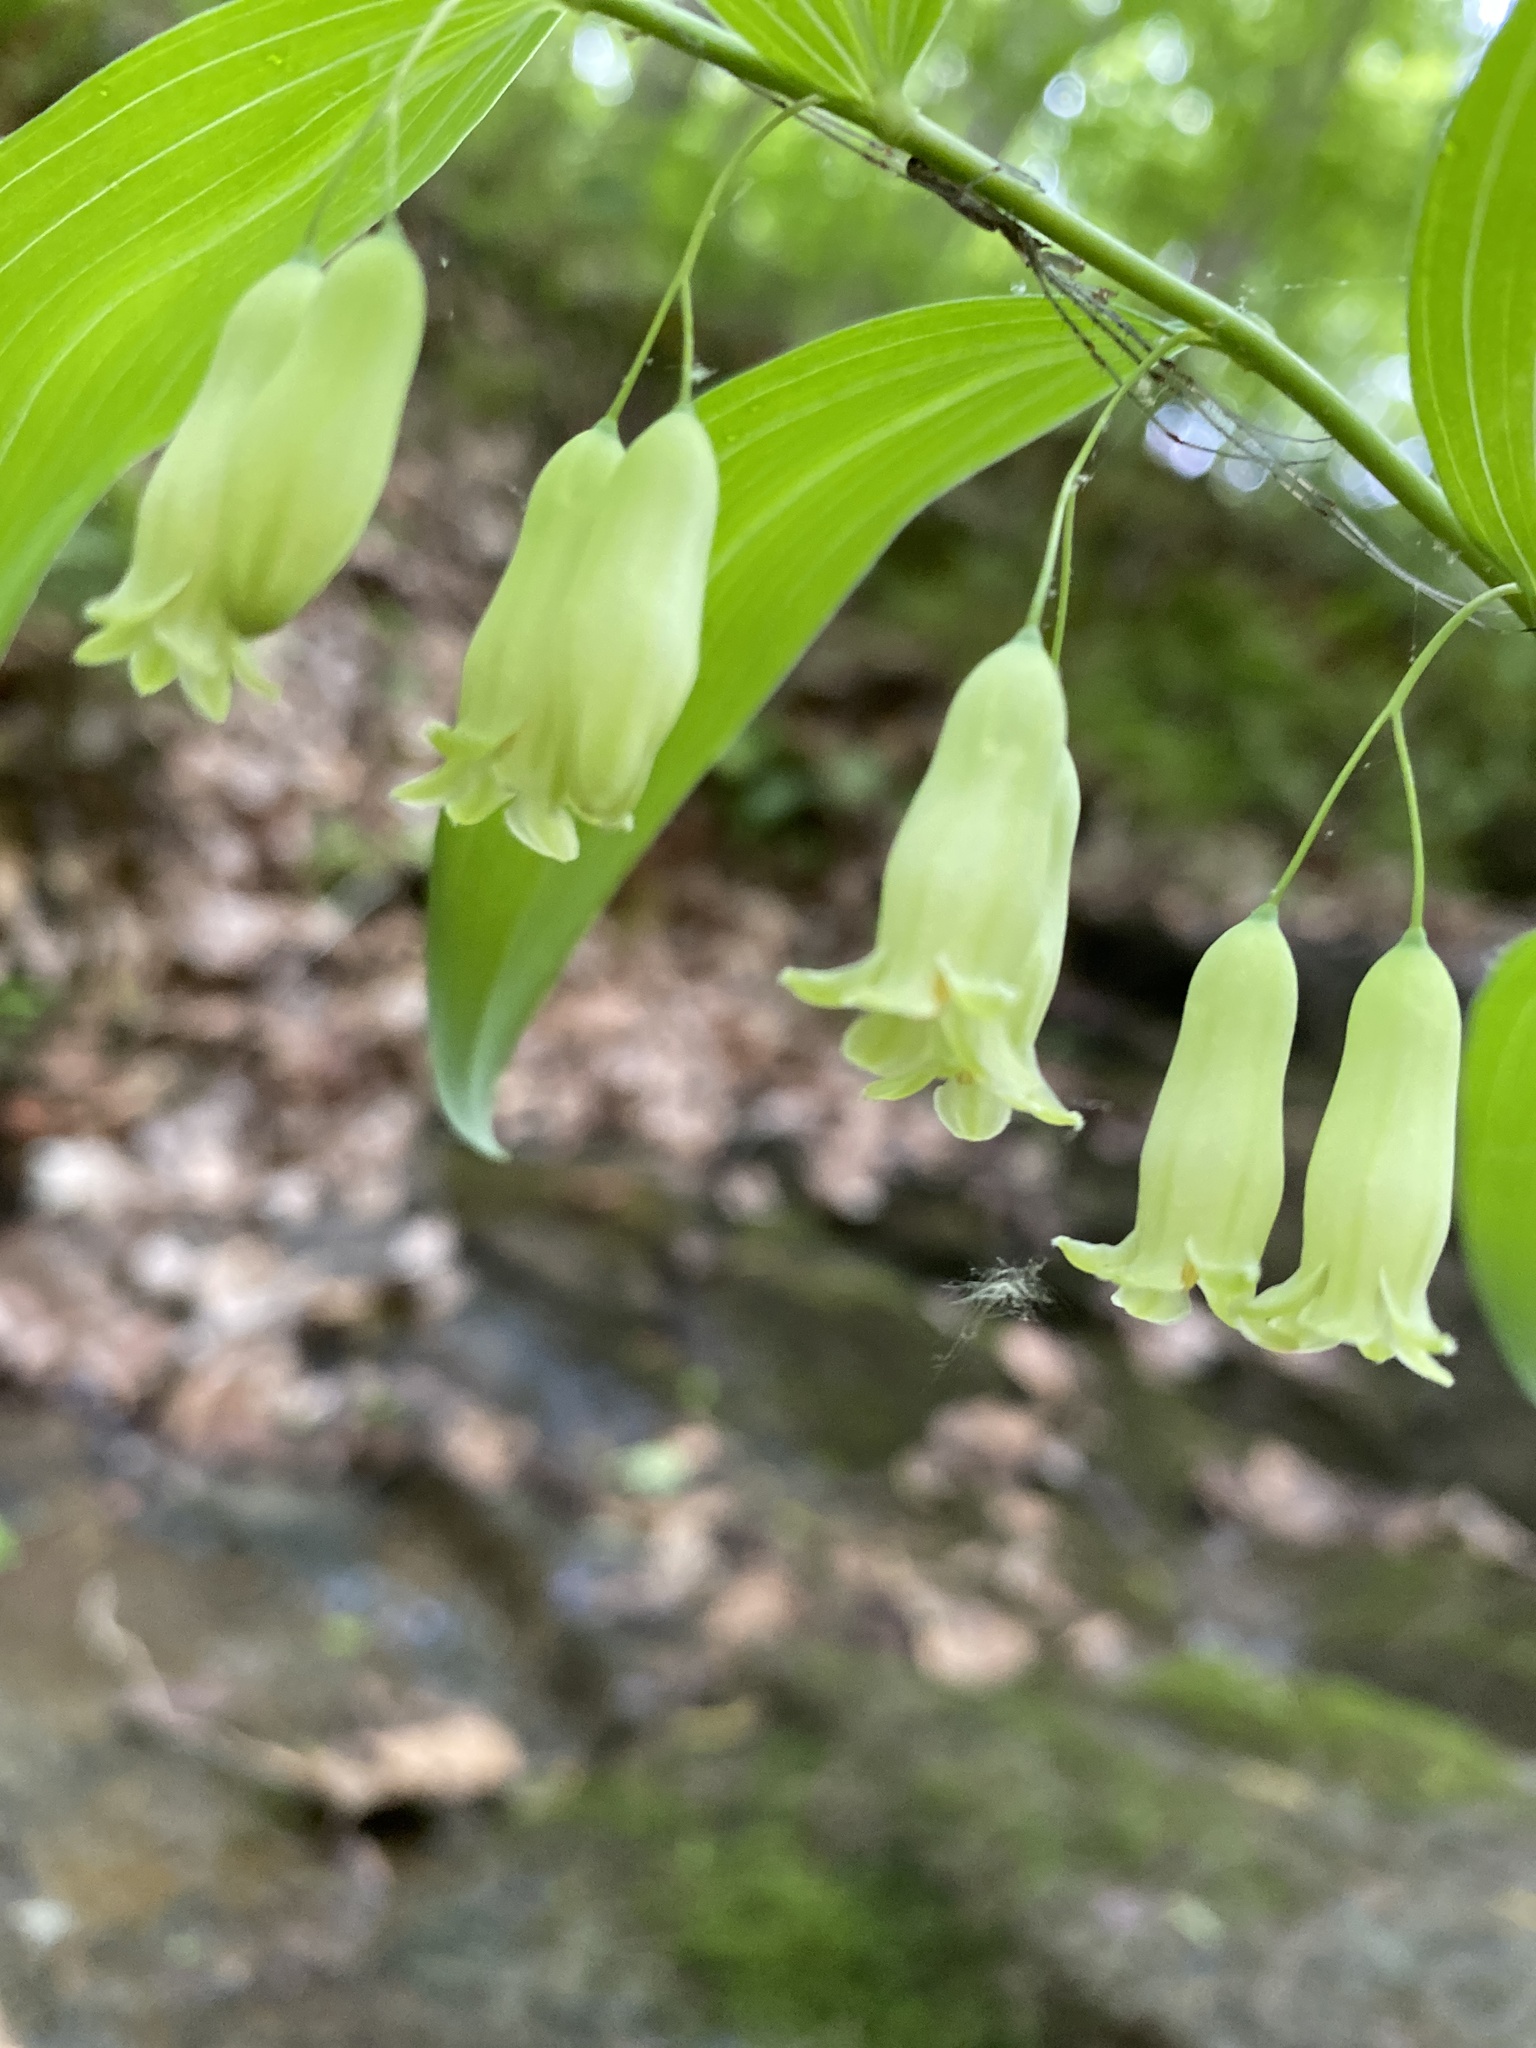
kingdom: Plantae
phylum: Tracheophyta
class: Liliopsida
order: Asparagales
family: Asparagaceae
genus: Polygonatum
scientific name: Polygonatum biflorum
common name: American solomon's-seal
